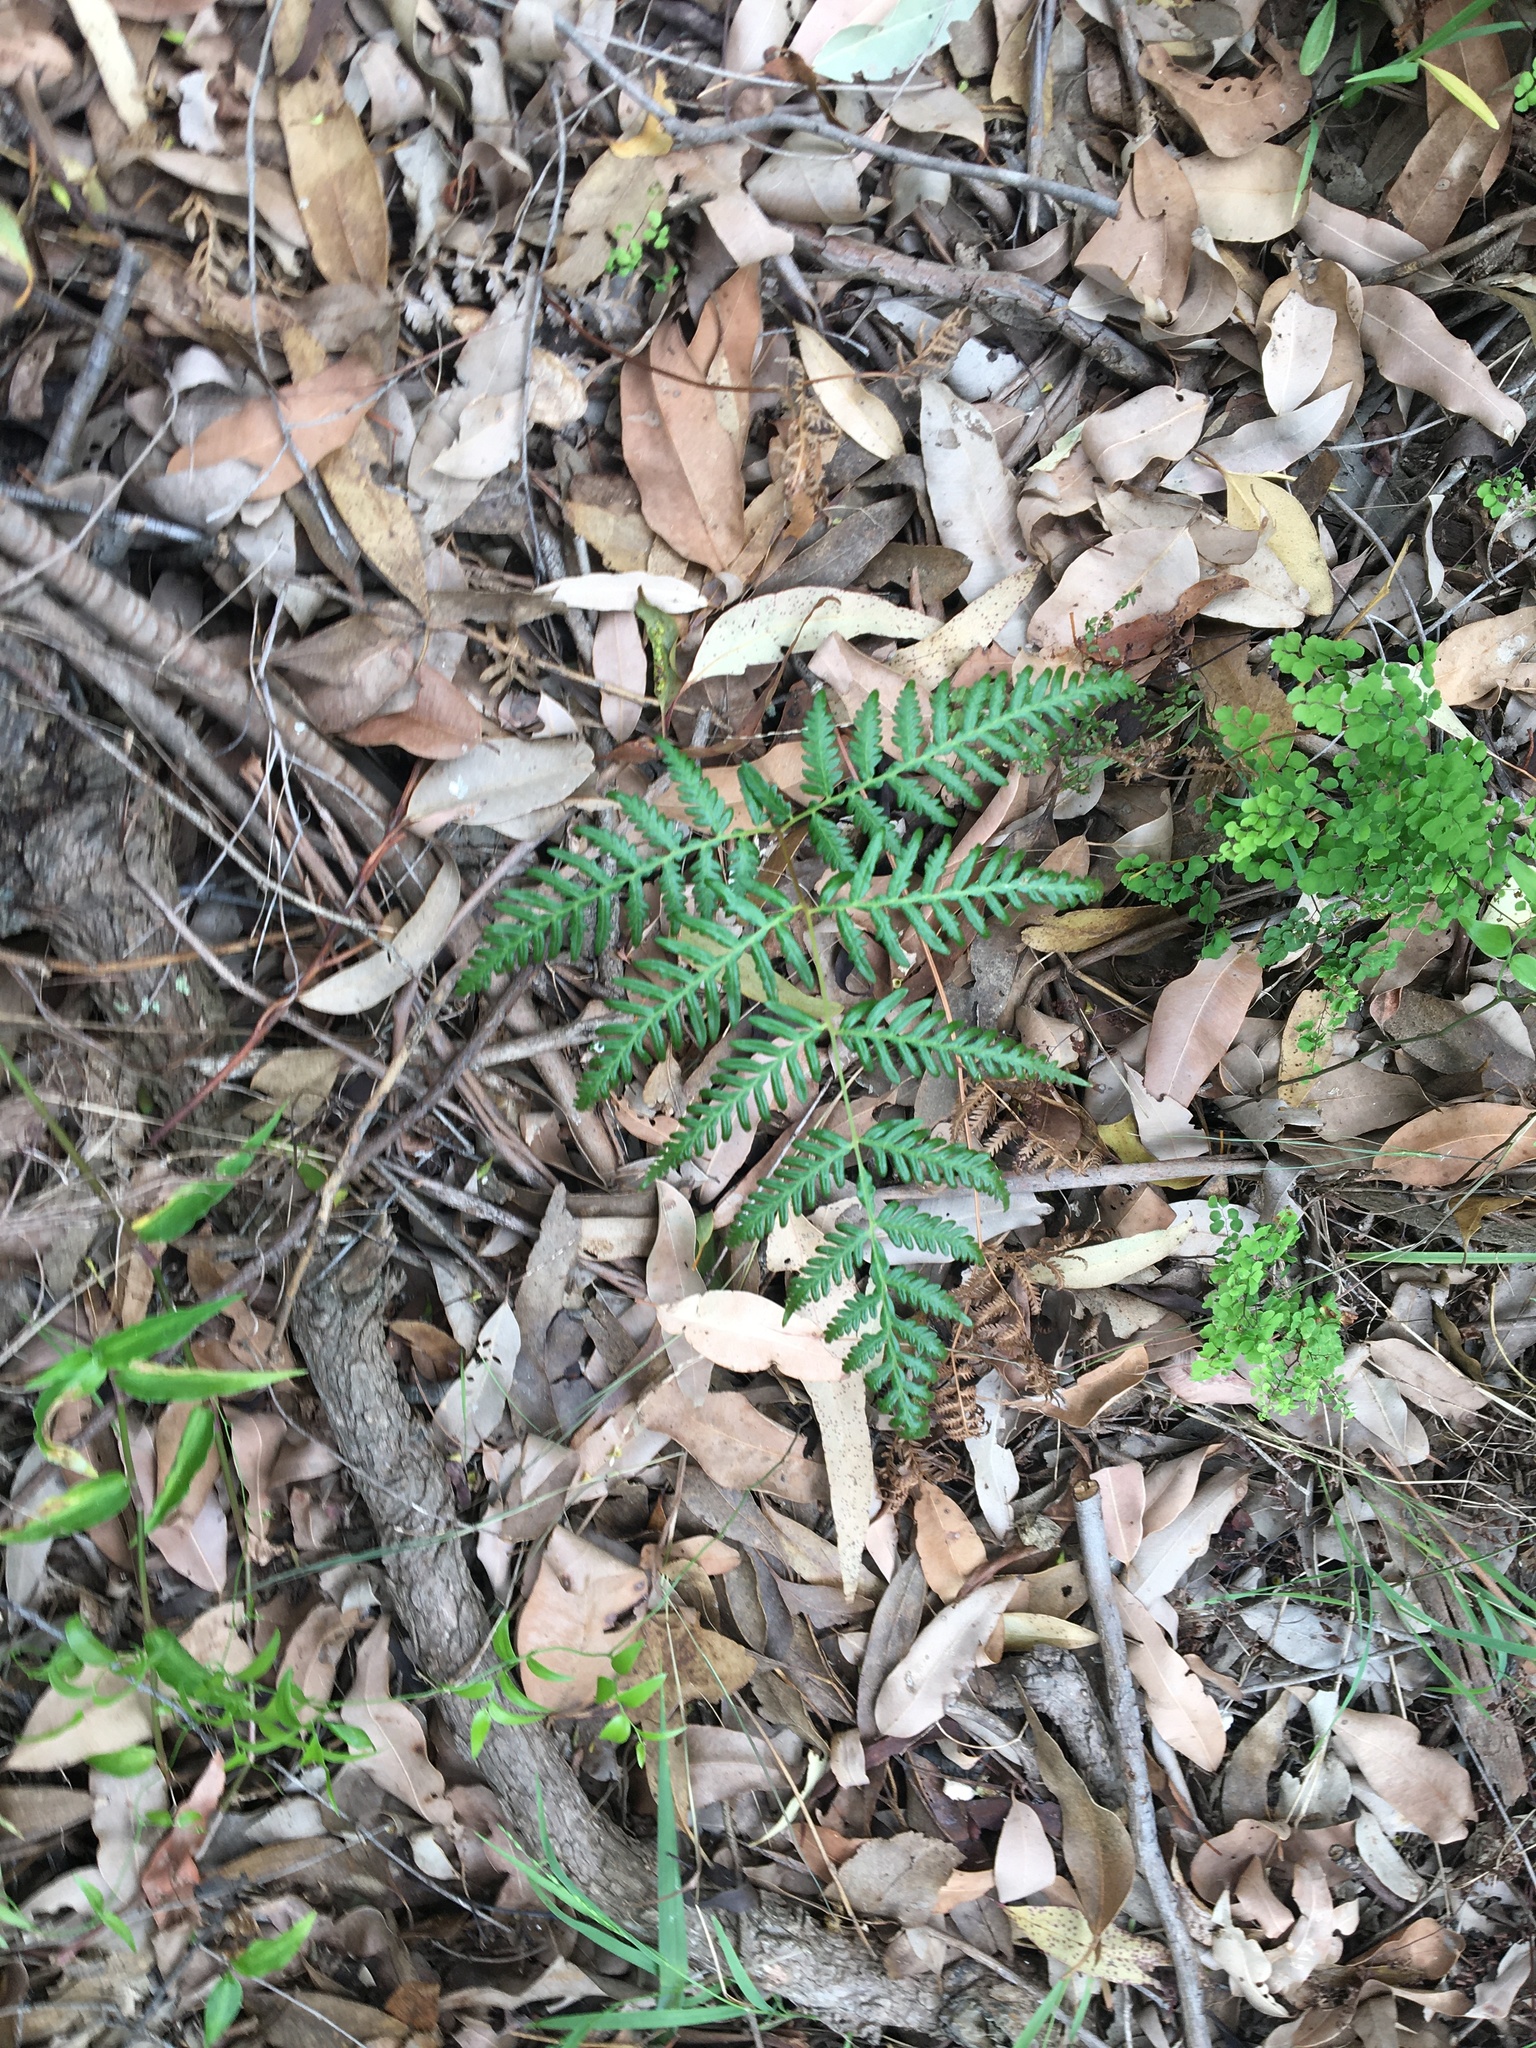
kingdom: Plantae
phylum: Tracheophyta
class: Polypodiopsida
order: Polypodiales
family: Dennstaedtiaceae
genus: Pteridium
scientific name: Pteridium esculentum
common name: Bracken fern
